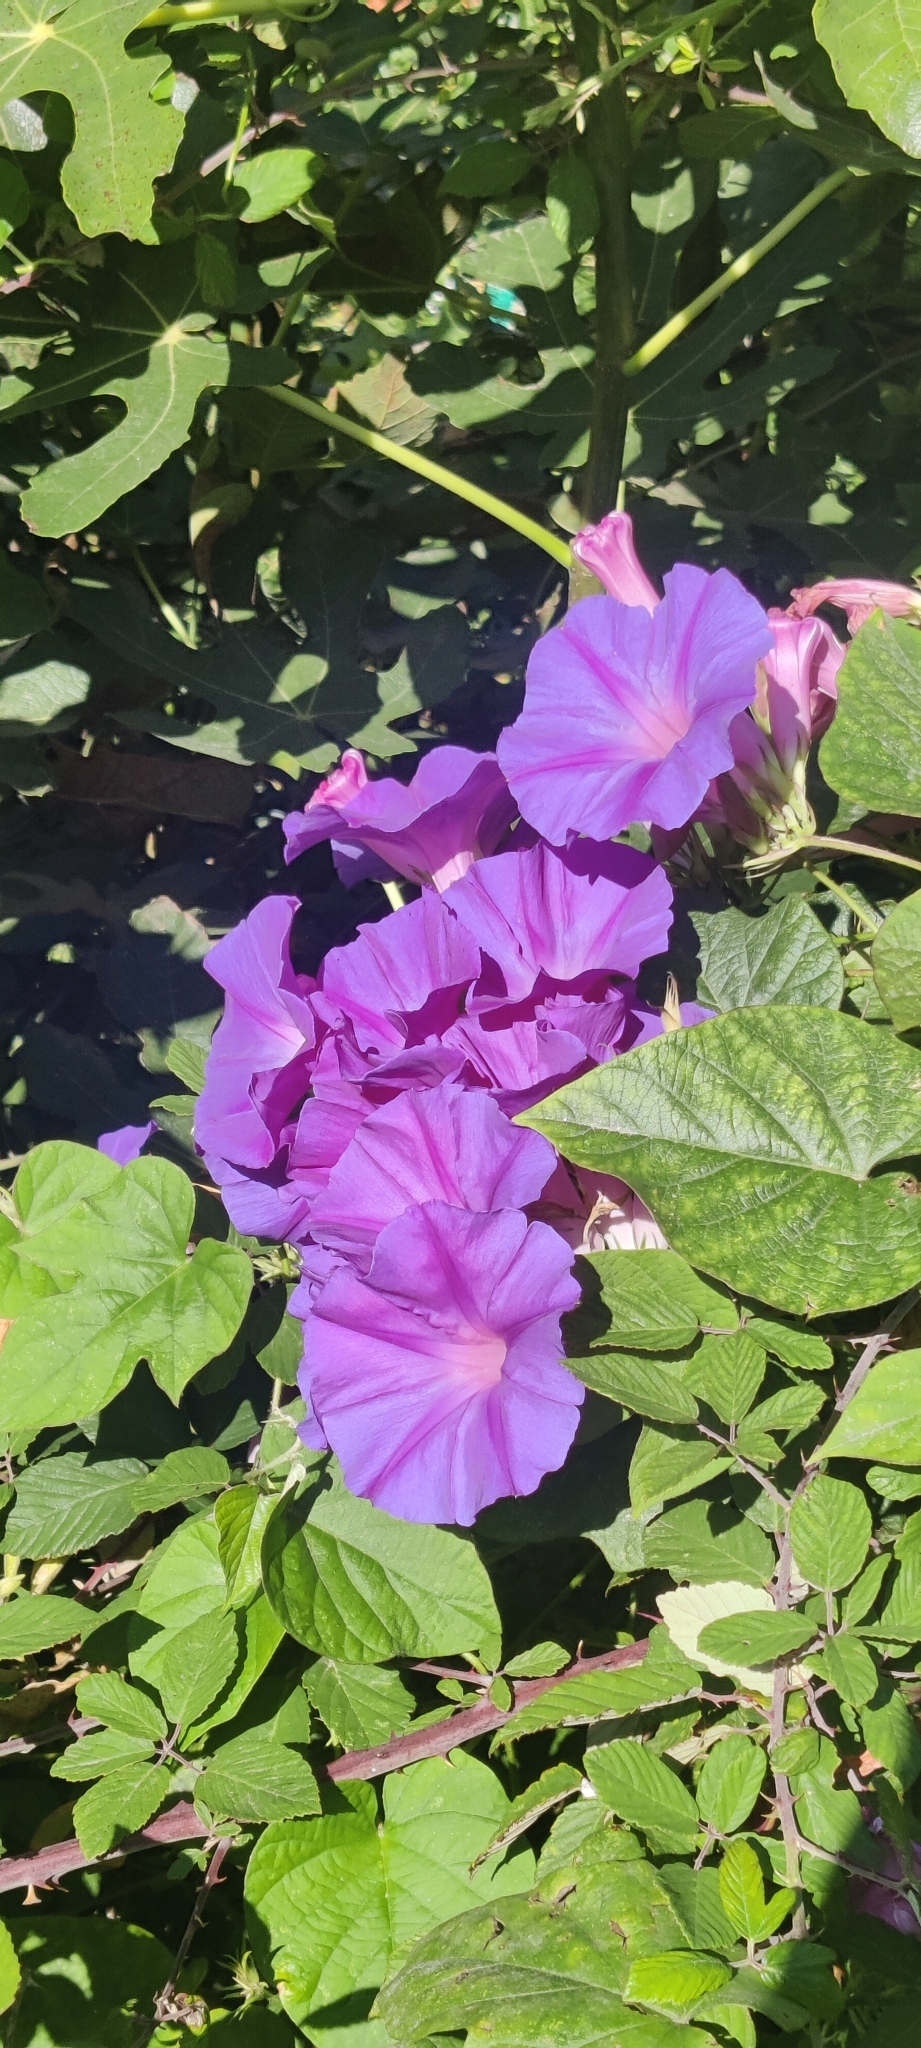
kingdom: Plantae
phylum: Tracheophyta
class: Magnoliopsida
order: Solanales
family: Convolvulaceae
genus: Ipomoea
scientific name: Ipomoea indica
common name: Blue dawnflower
